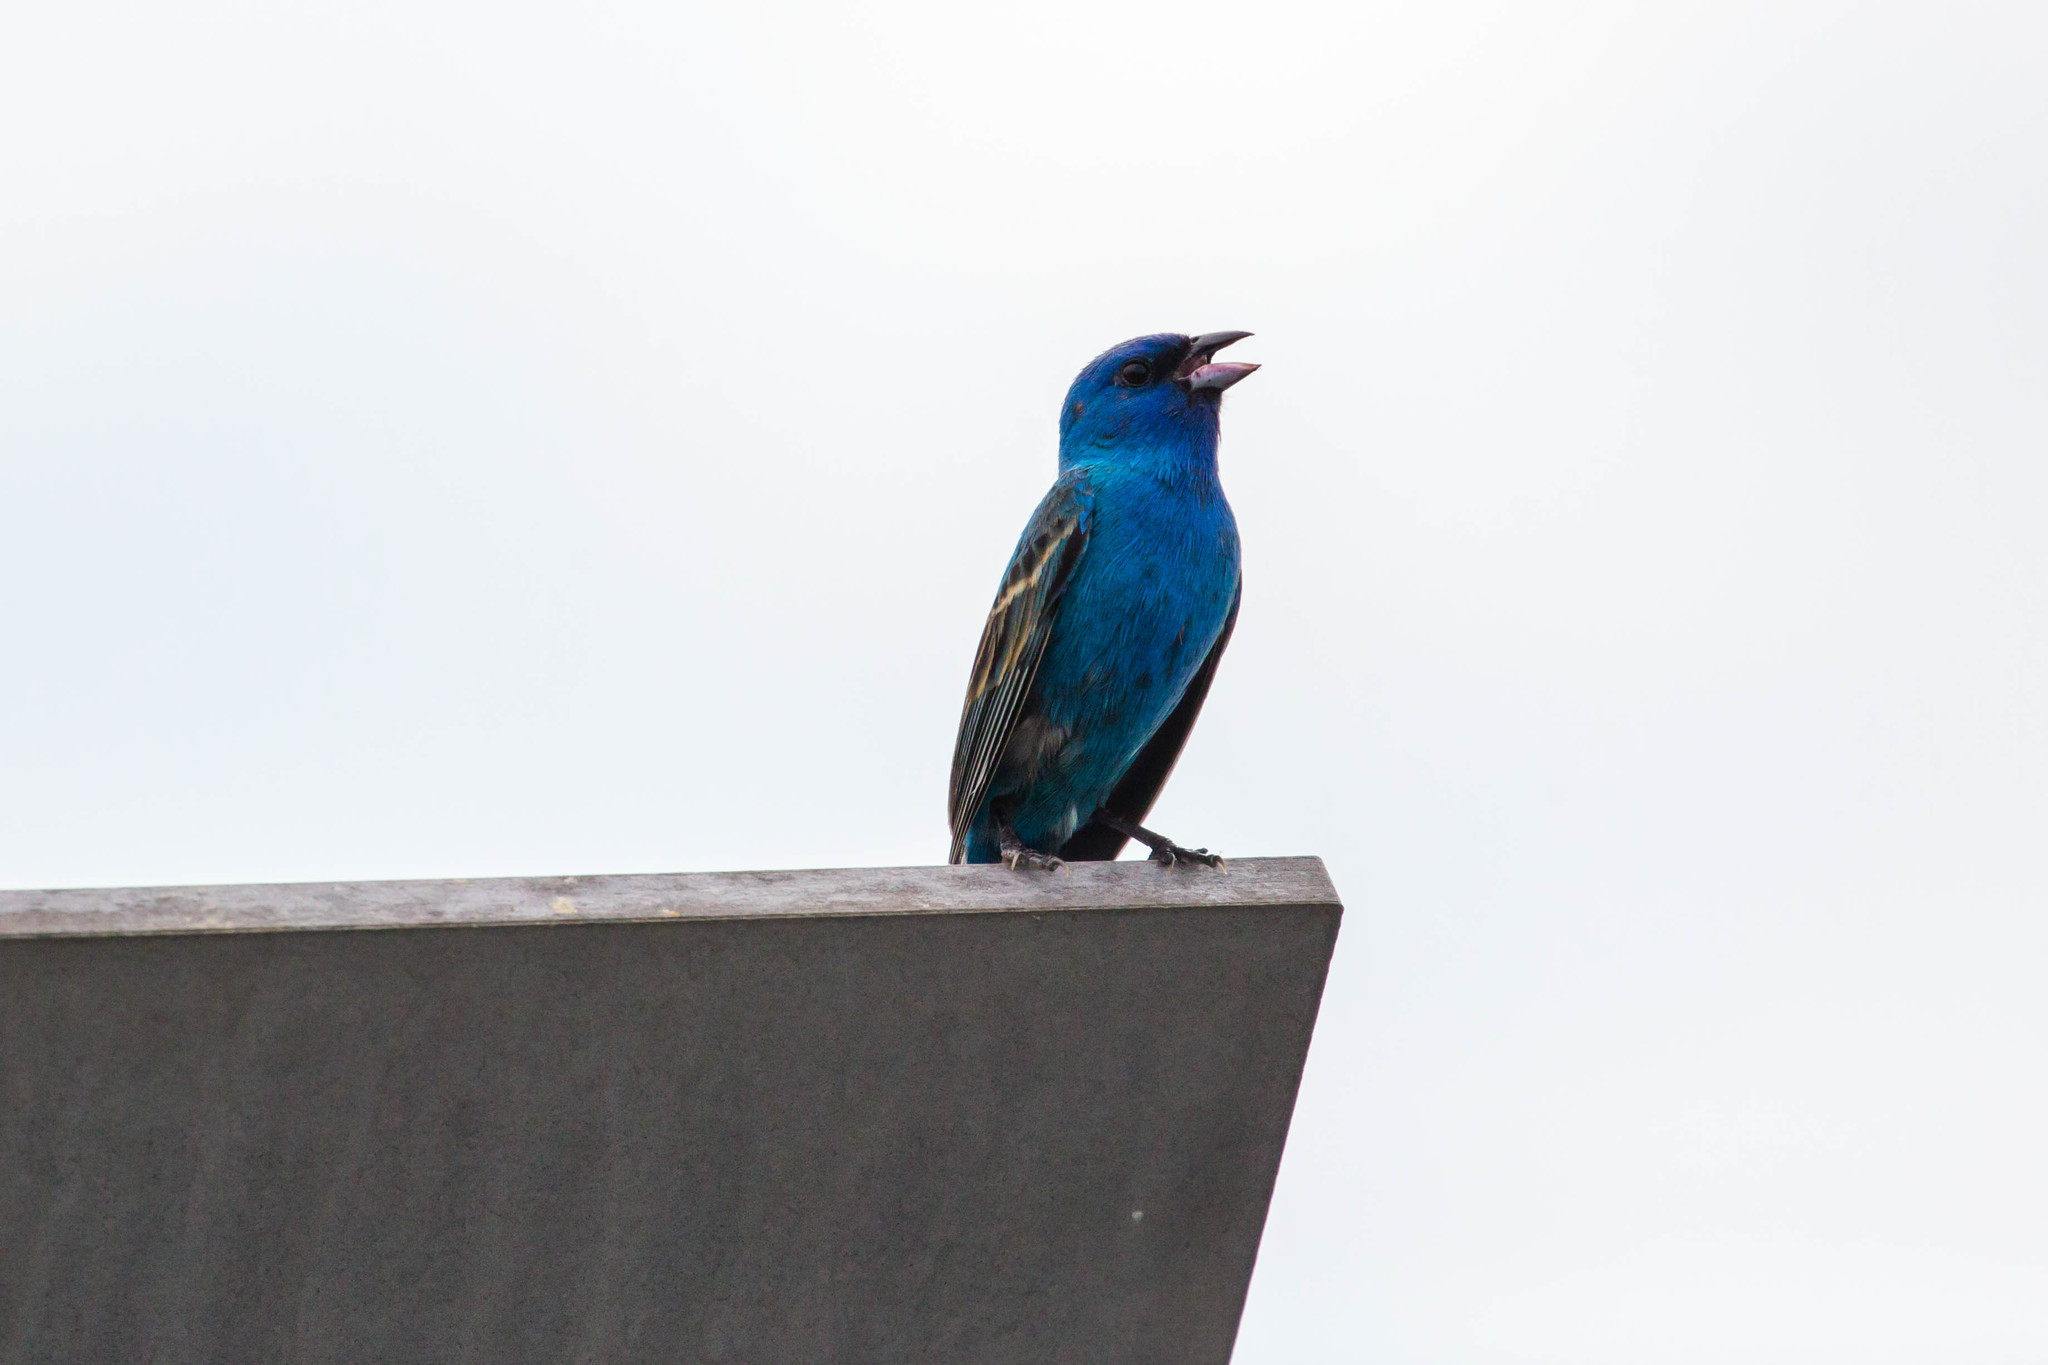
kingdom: Animalia
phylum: Chordata
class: Aves
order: Passeriformes
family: Cardinalidae
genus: Passerina
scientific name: Passerina cyanea
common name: Indigo bunting
